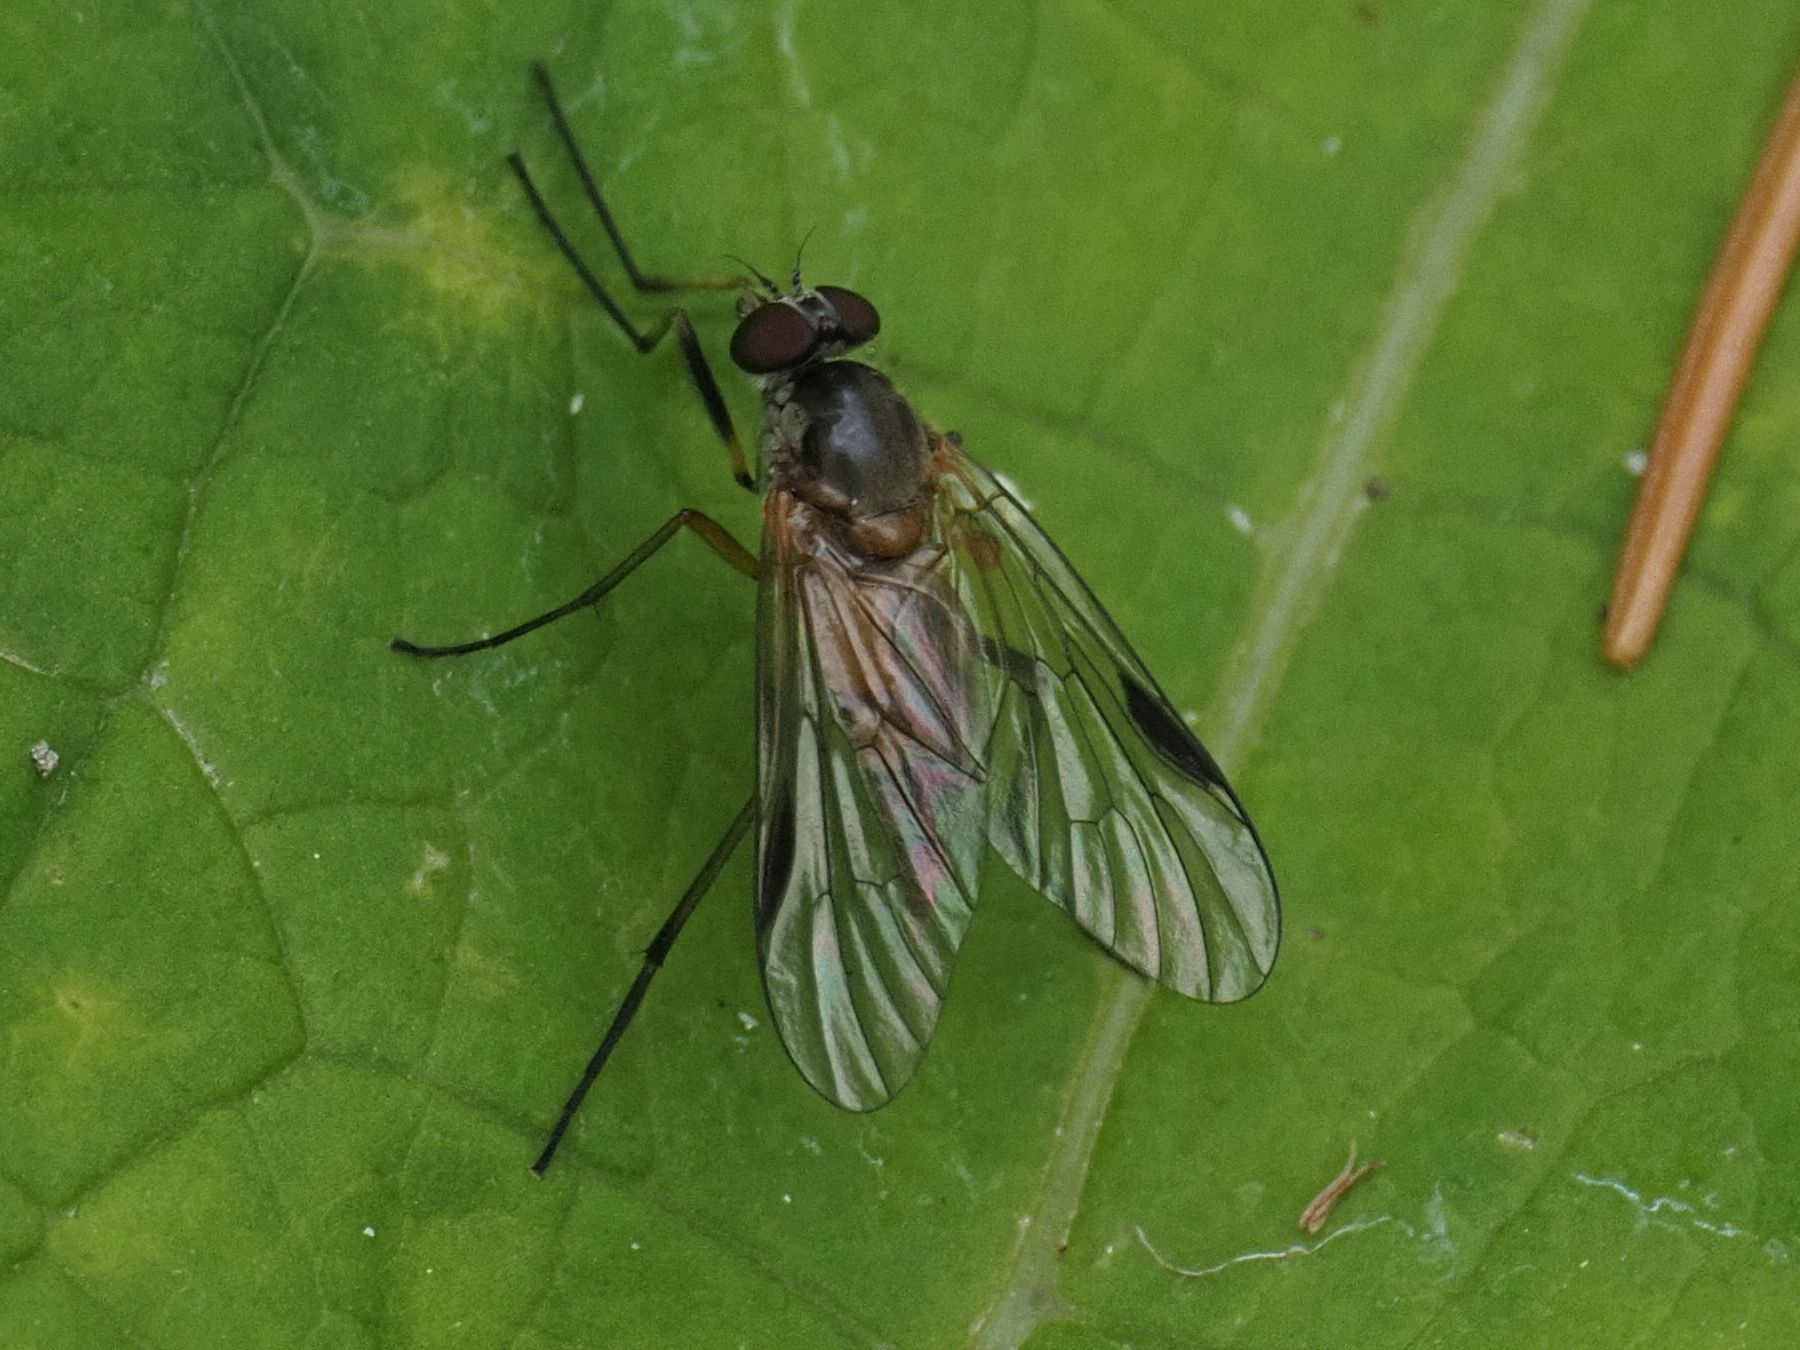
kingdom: Animalia
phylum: Arthropoda
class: Insecta
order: Diptera
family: Rhagionidae
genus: Rhagio
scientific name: Rhagio lineola
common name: Small fleck-winged snipefly
